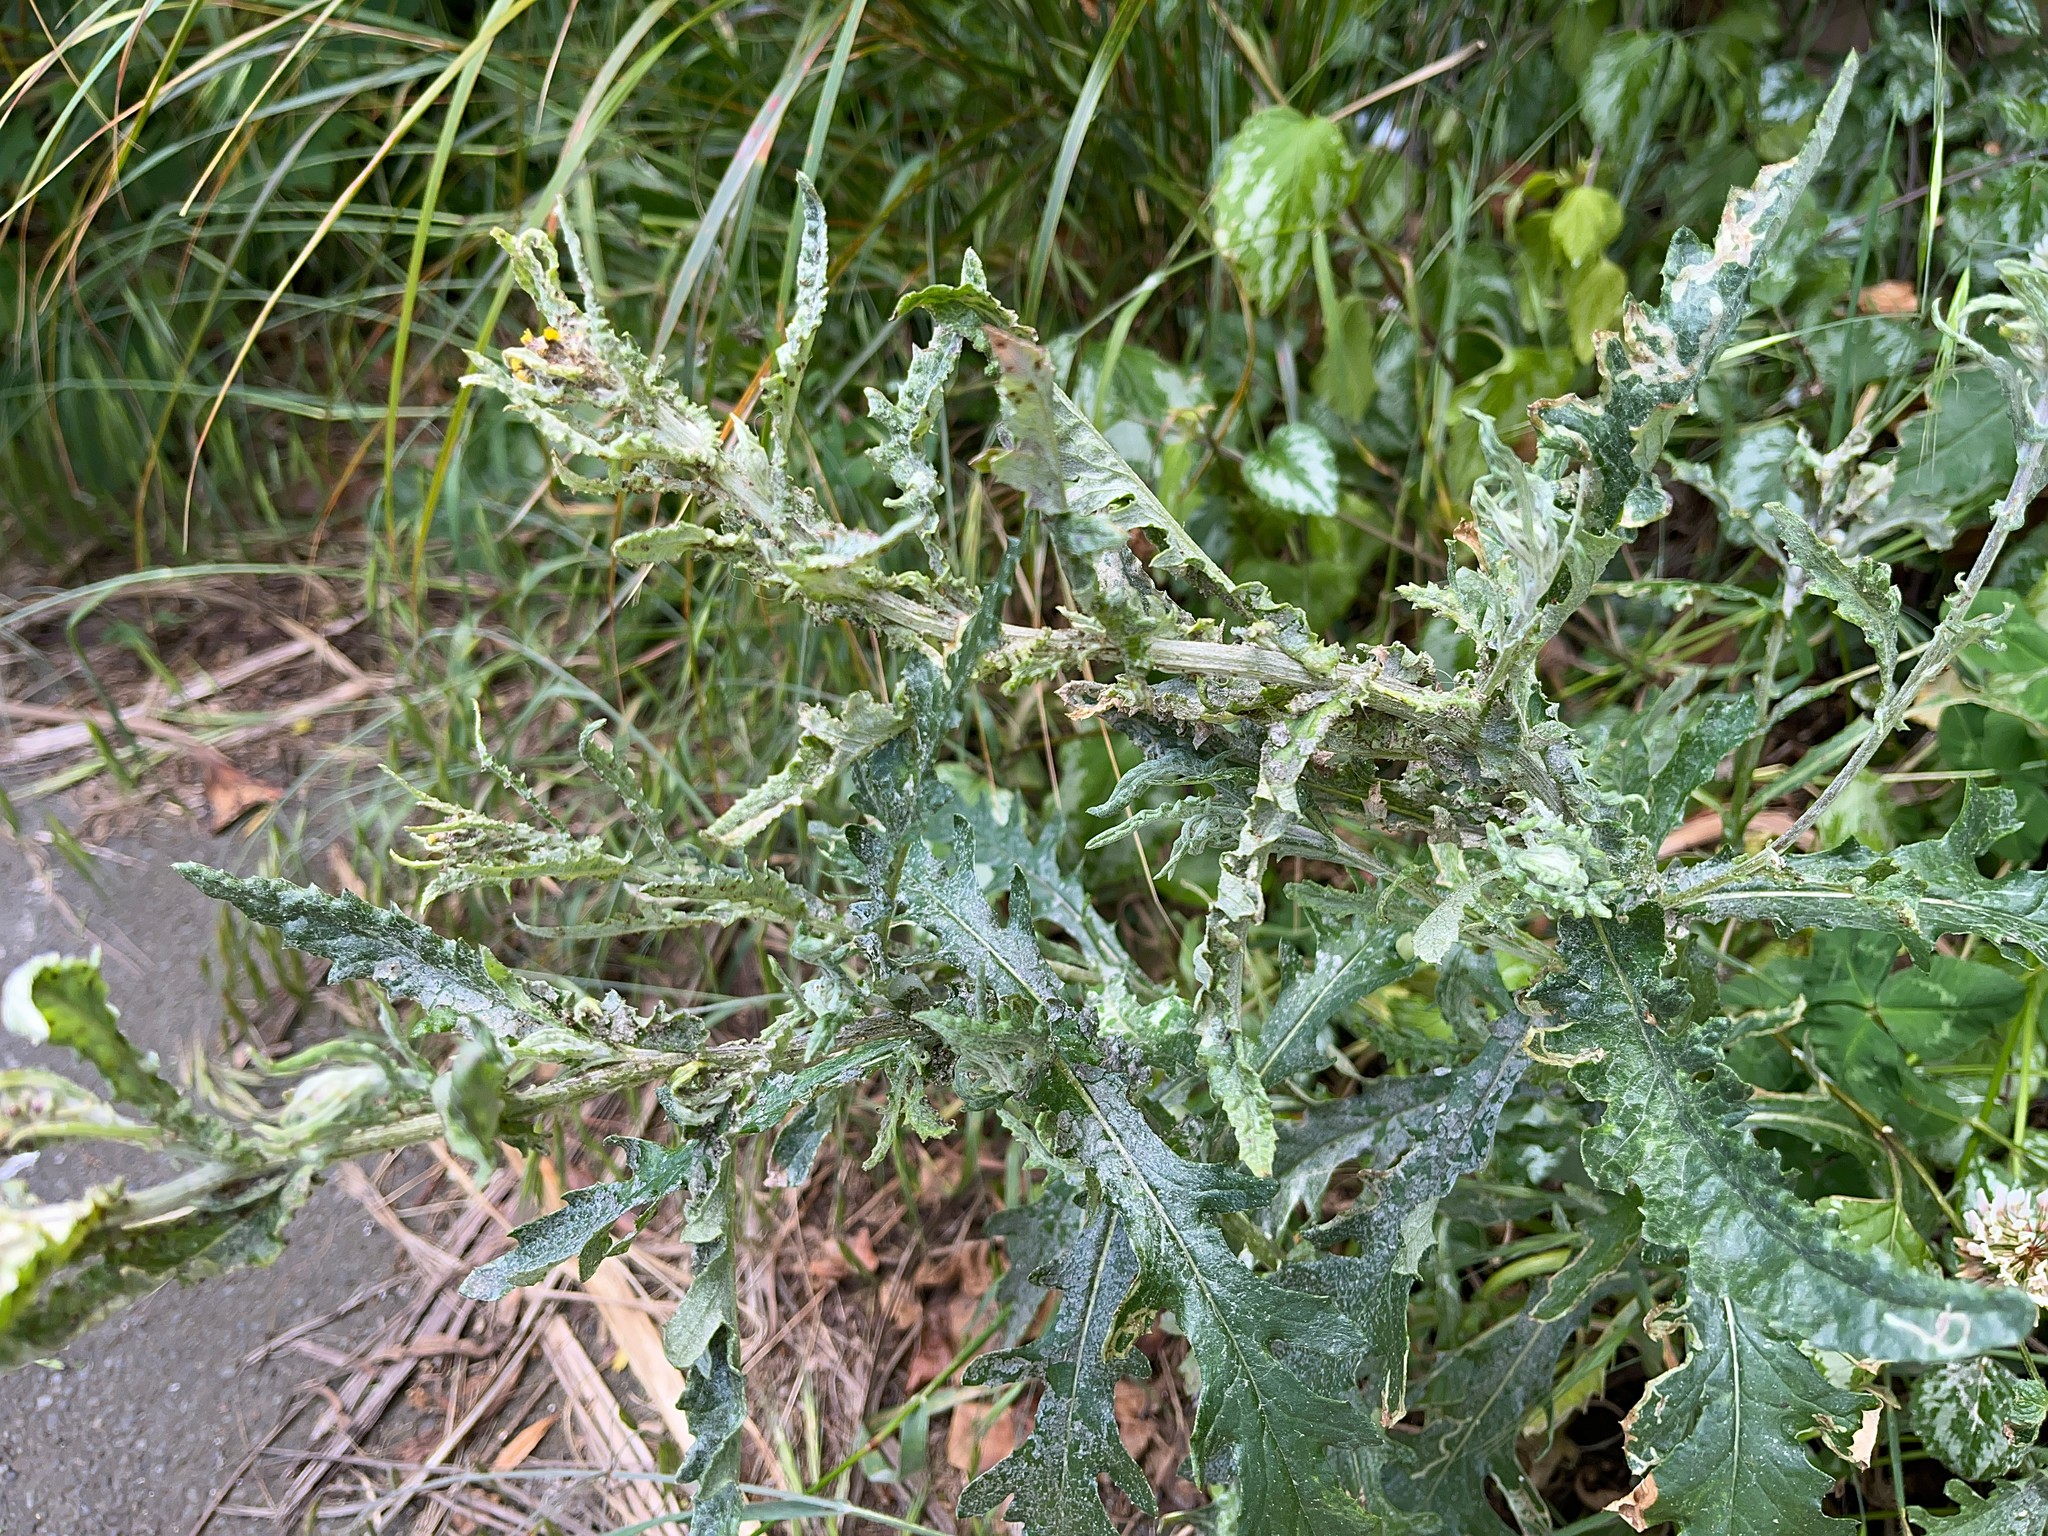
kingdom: Plantae
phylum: Tracheophyta
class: Magnoliopsida
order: Asterales
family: Asteraceae
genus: Senecio
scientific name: Senecio glomeratus
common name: Cutleaf burnweed
